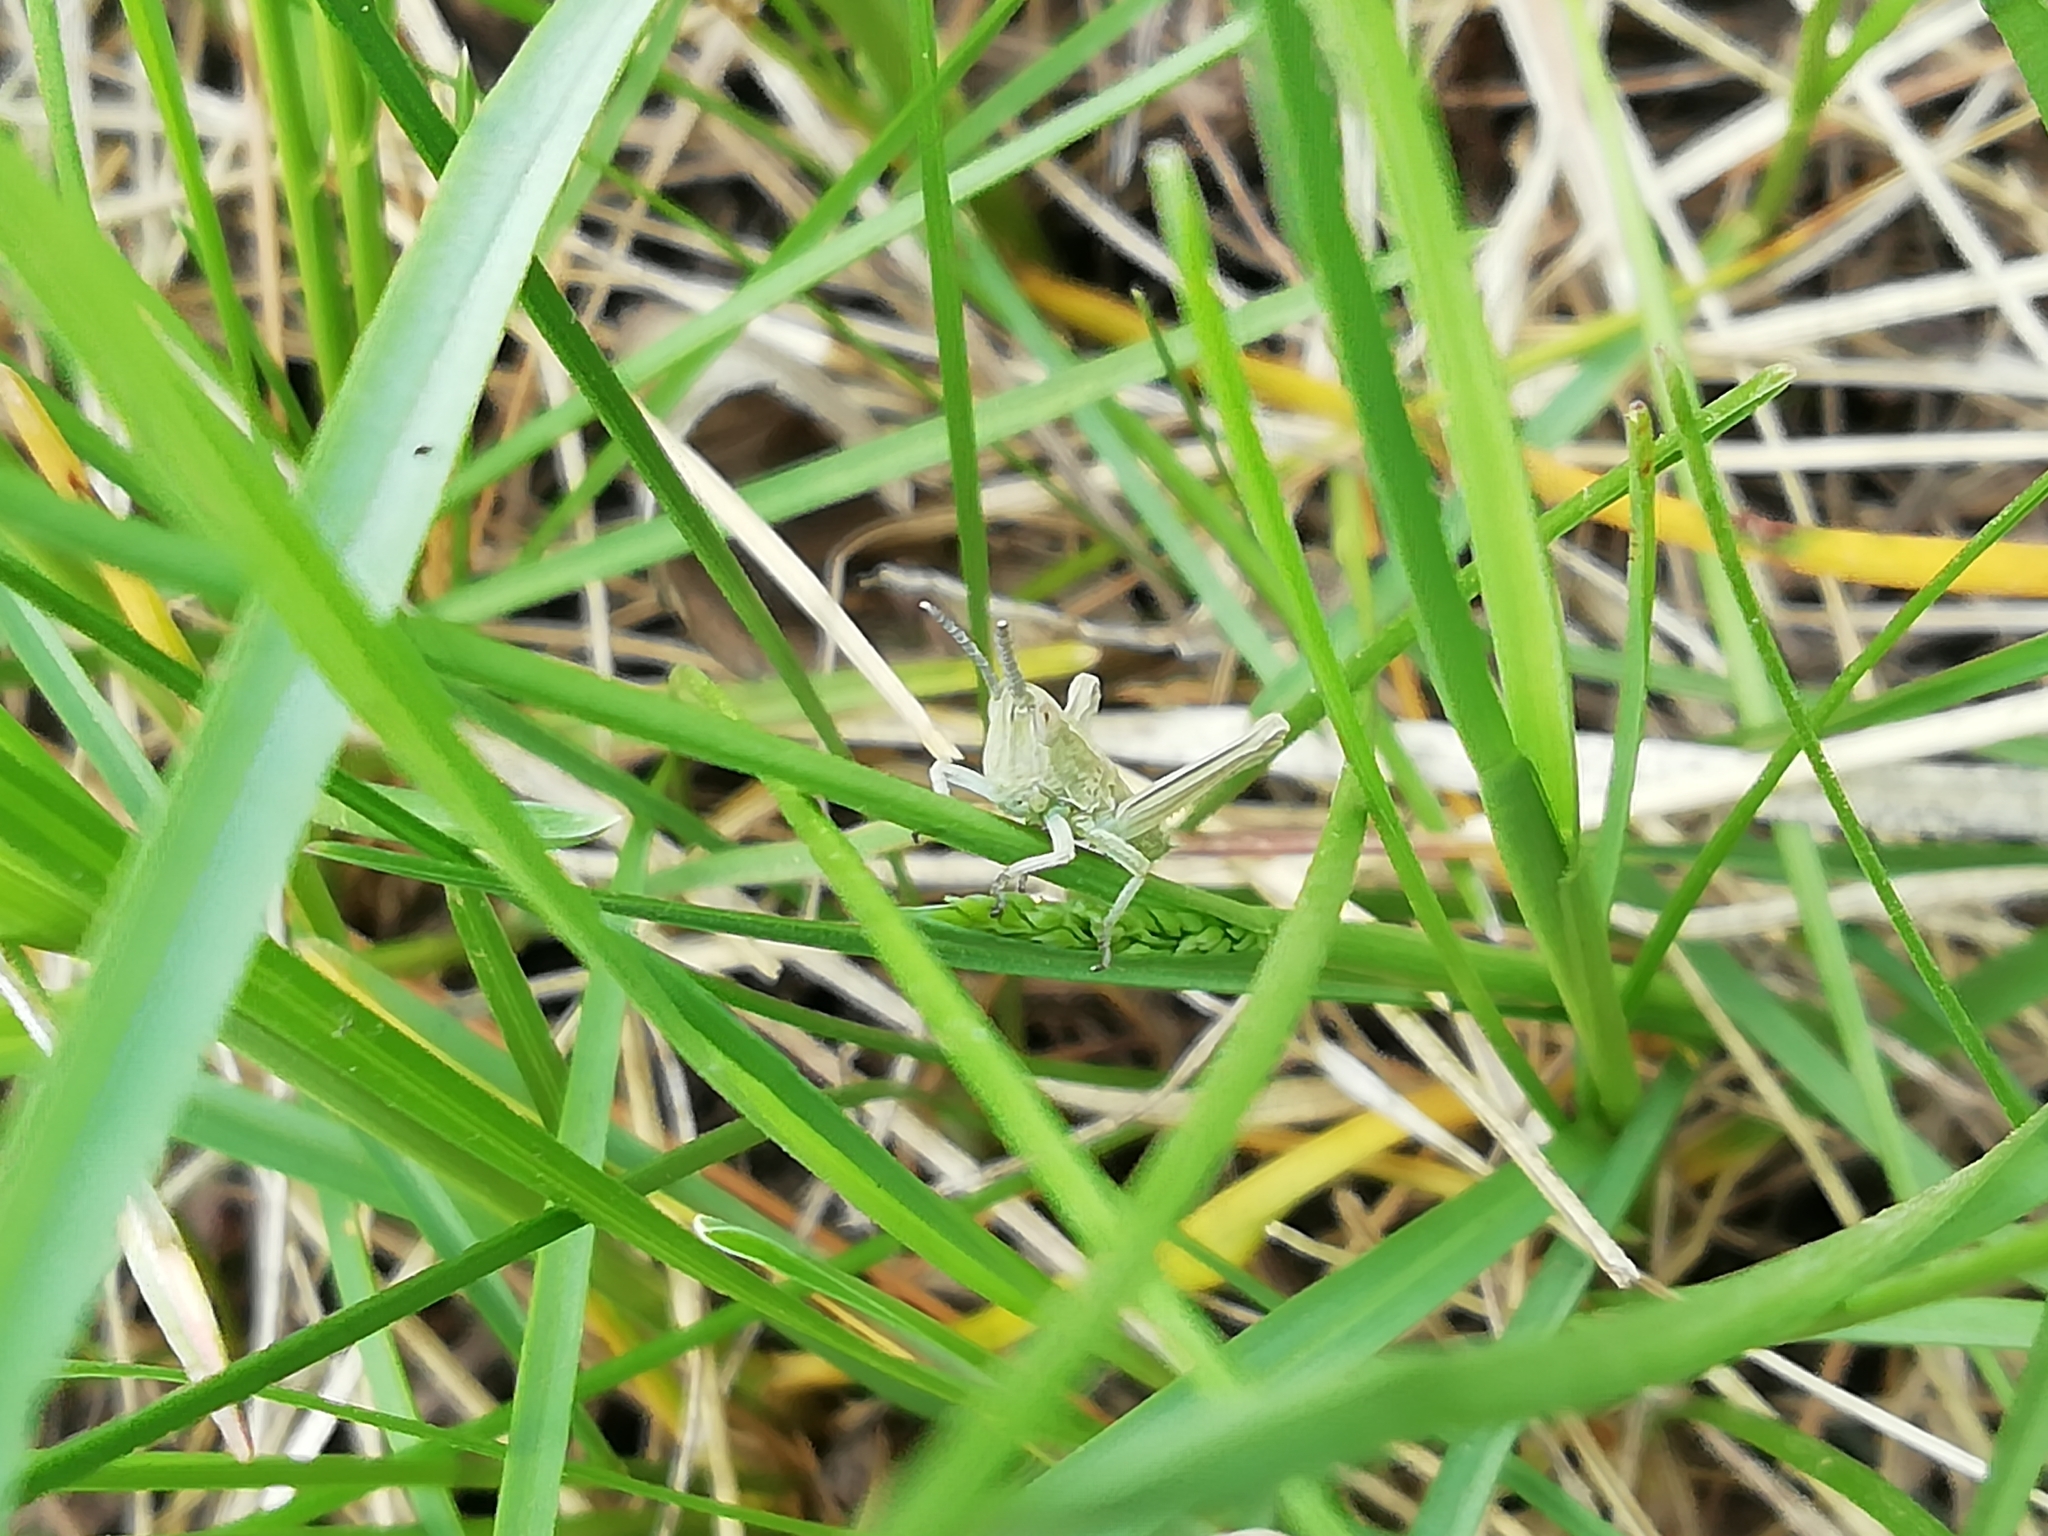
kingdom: Animalia
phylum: Arthropoda
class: Insecta
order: Orthoptera
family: Acrididae
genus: Euthystira
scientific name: Euthystira brachyptera
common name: Small gold grasshopper
